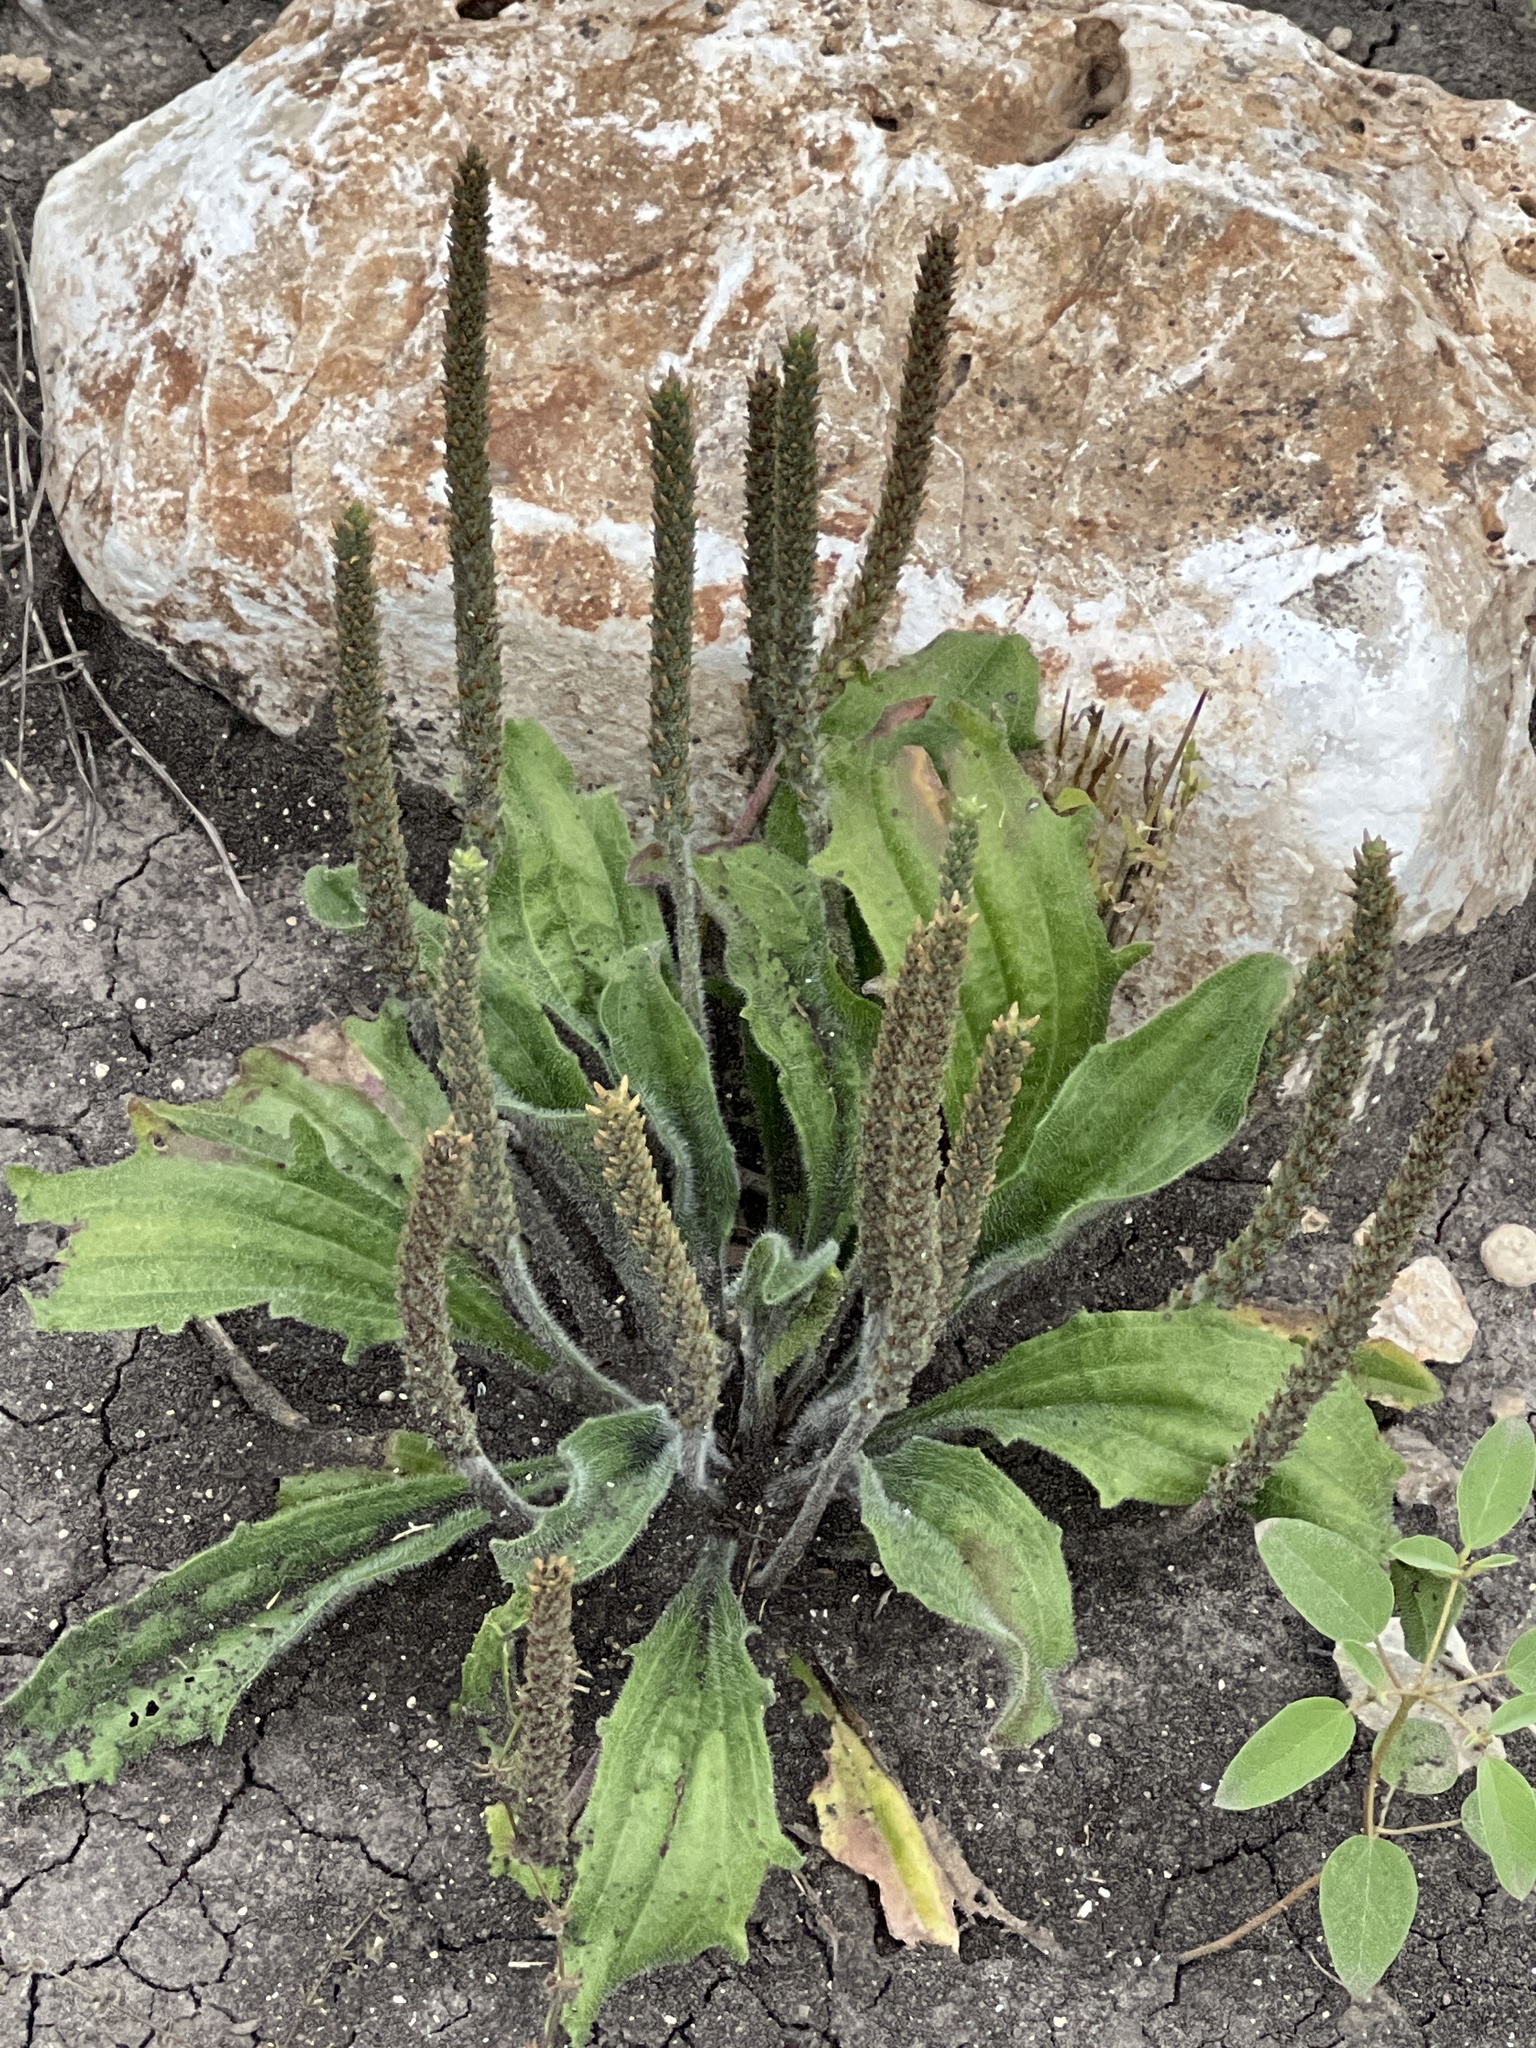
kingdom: Plantae
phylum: Tracheophyta
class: Magnoliopsida
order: Lamiales
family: Plantaginaceae
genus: Plantago
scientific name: Plantago rhodosperma
